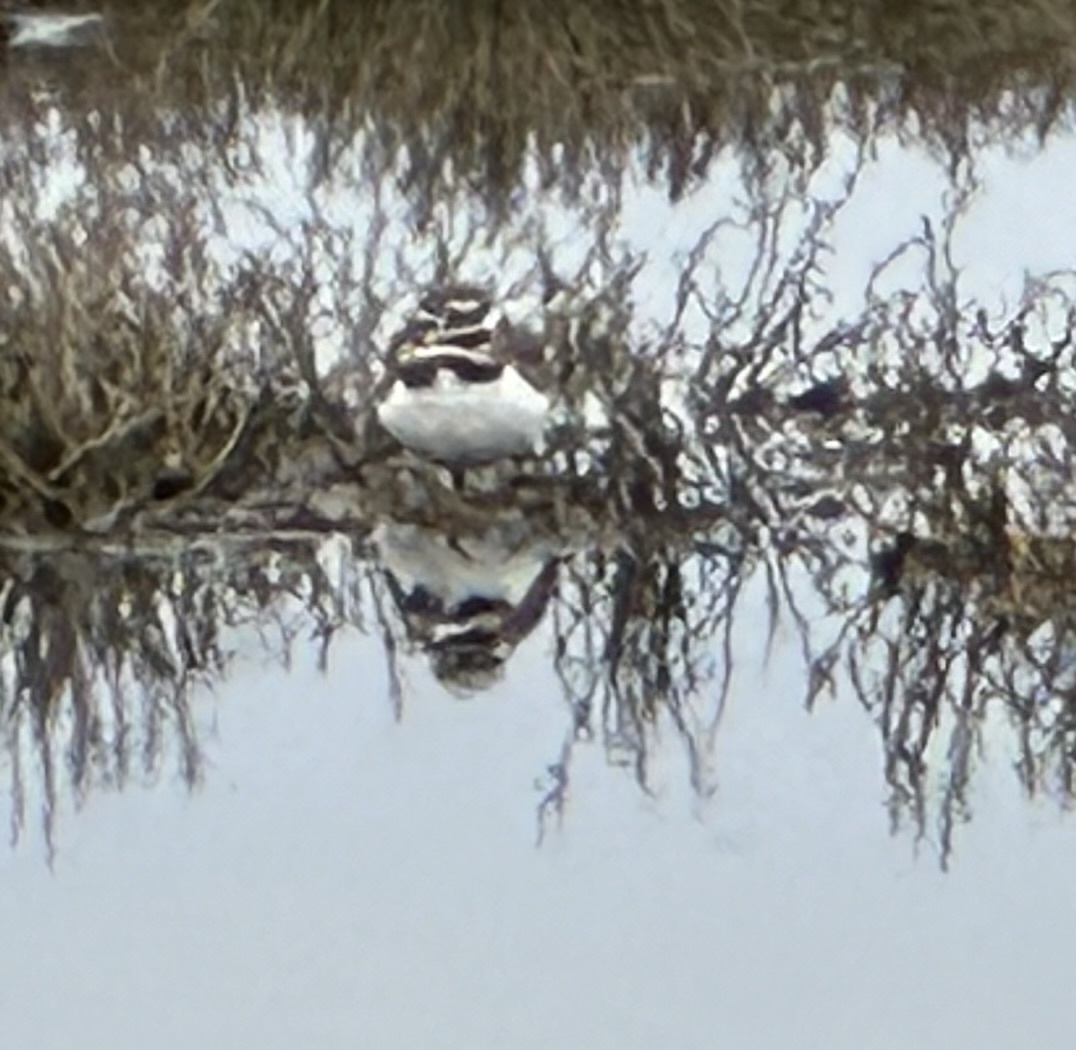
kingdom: Animalia
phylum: Chordata
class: Aves
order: Charadriiformes
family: Charadriidae
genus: Charadrius
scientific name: Charadrius vociferus
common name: Killdeer
